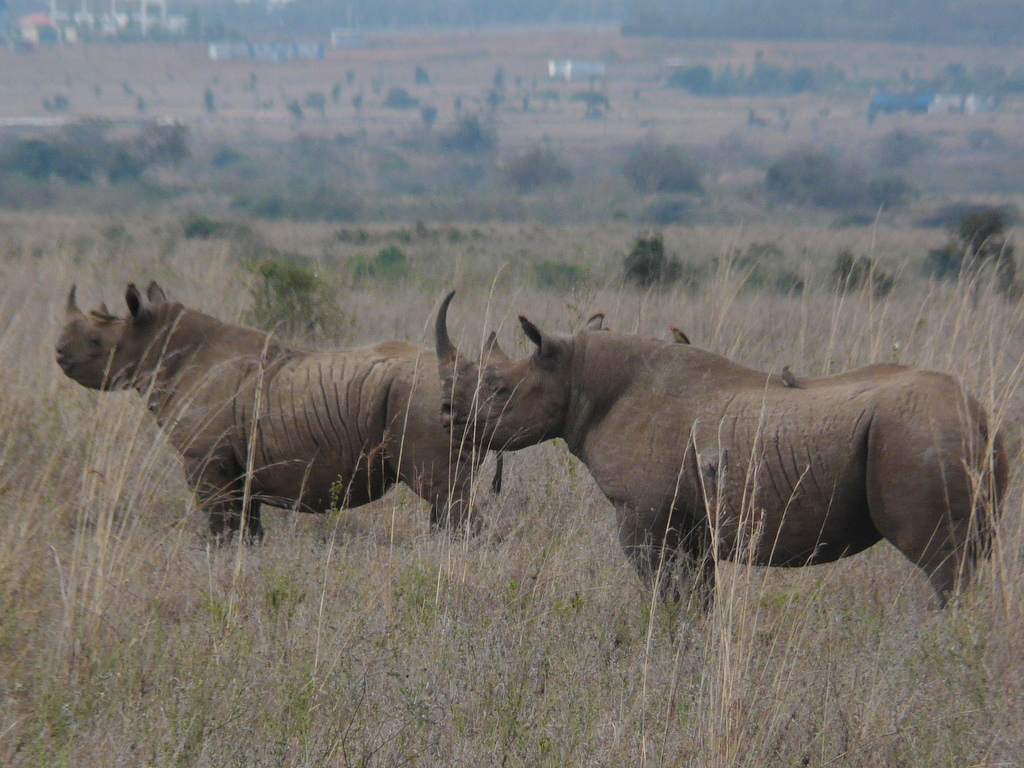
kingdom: Animalia
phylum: Chordata
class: Mammalia
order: Perissodactyla
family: Rhinocerotidae
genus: Diceros
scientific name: Diceros bicornis
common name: Black rhinoceros
